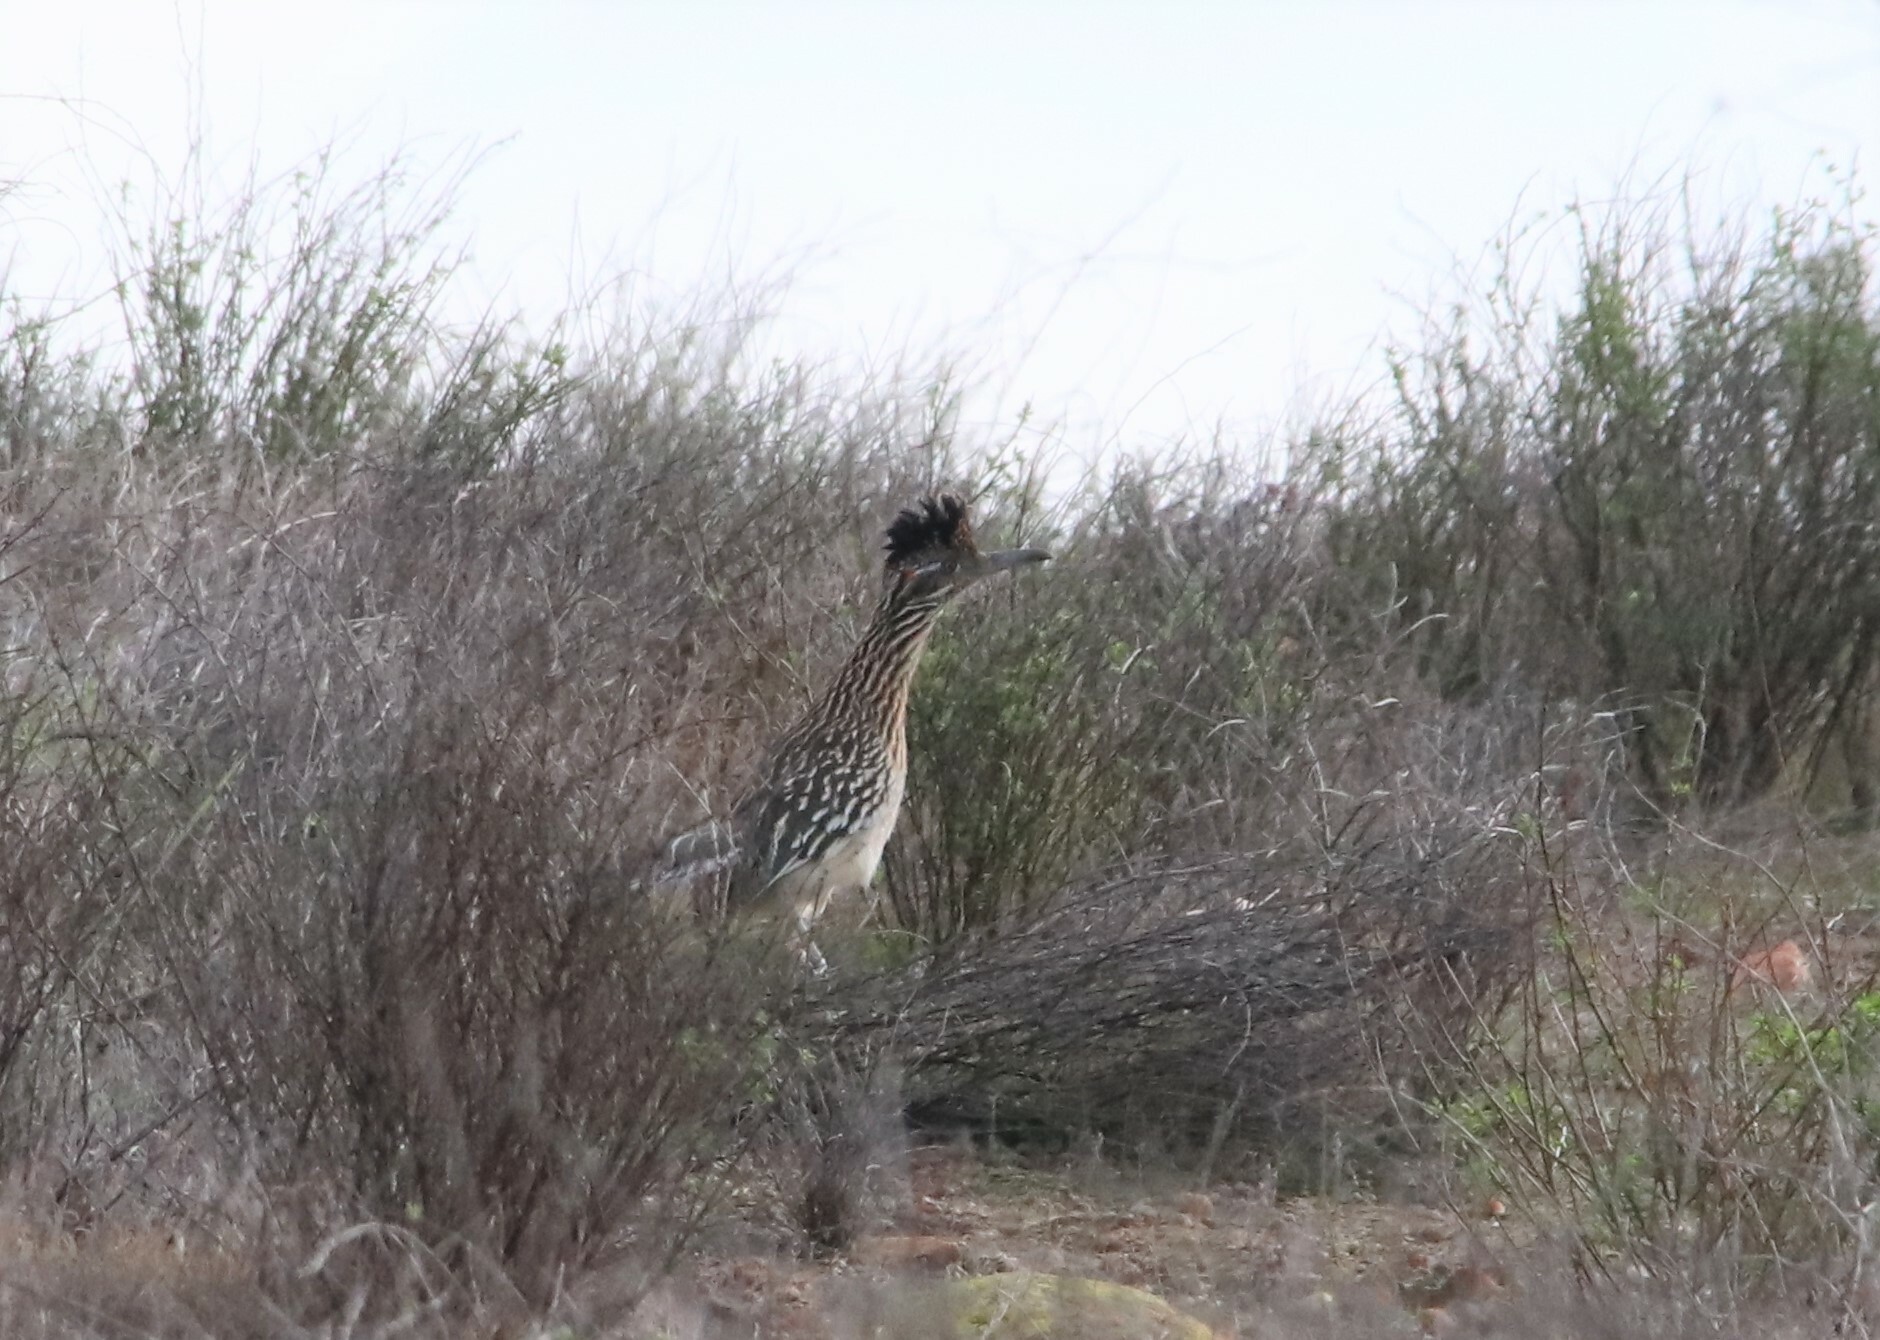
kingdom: Animalia
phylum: Chordata
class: Aves
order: Cuculiformes
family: Cuculidae
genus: Geococcyx
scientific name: Geococcyx californianus
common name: Greater roadrunner
